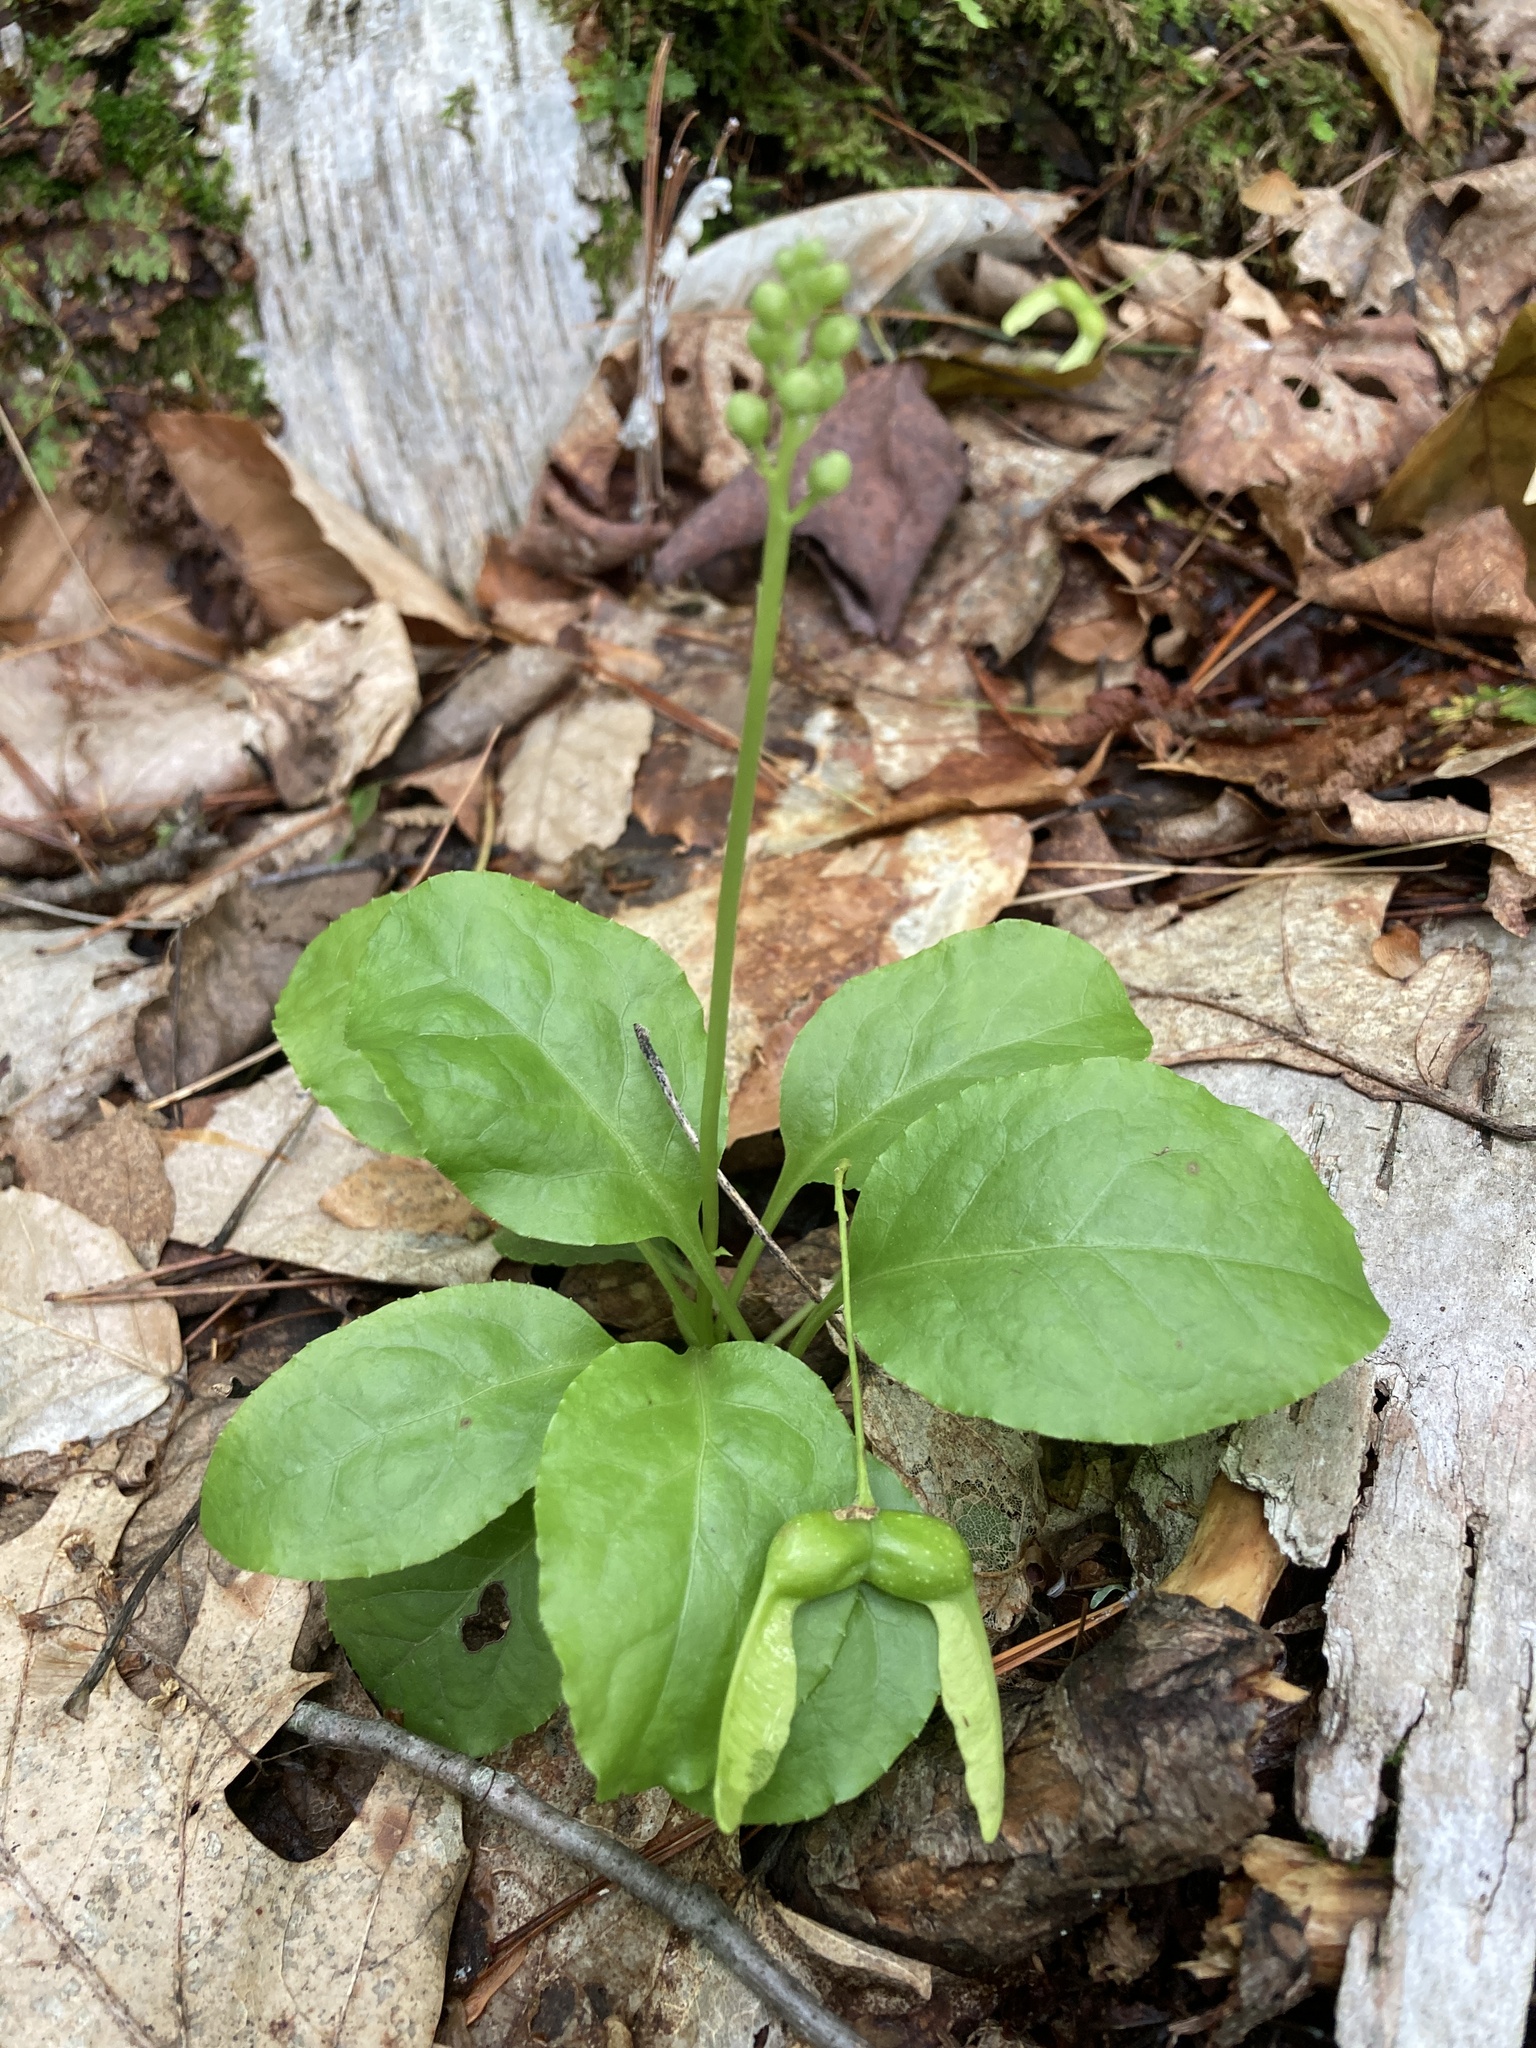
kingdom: Plantae
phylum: Tracheophyta
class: Magnoliopsida
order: Ericales
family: Ericaceae
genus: Pyrola
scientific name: Pyrola elliptica
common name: Shinleaf
